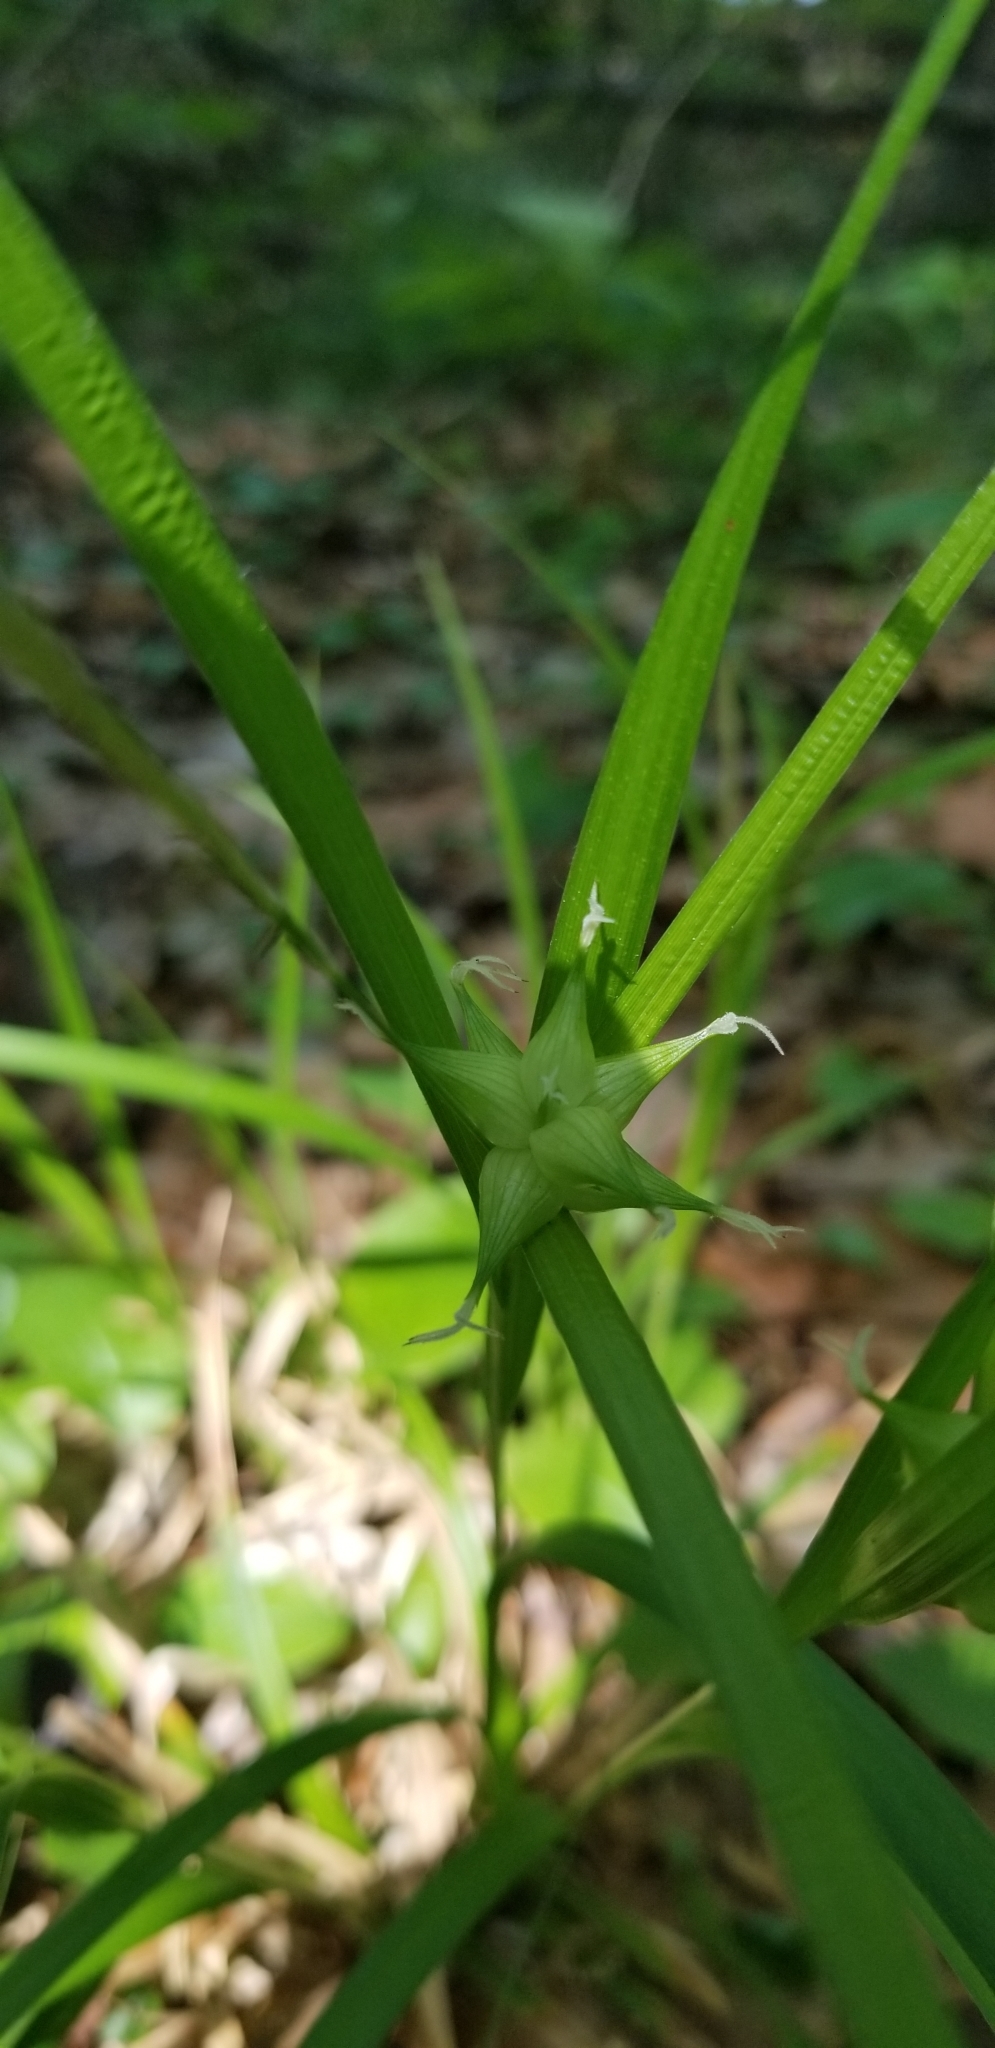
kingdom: Plantae
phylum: Tracheophyta
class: Liliopsida
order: Poales
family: Cyperaceae
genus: Carex
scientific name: Carex intumescens
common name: Greater bladder sedge
